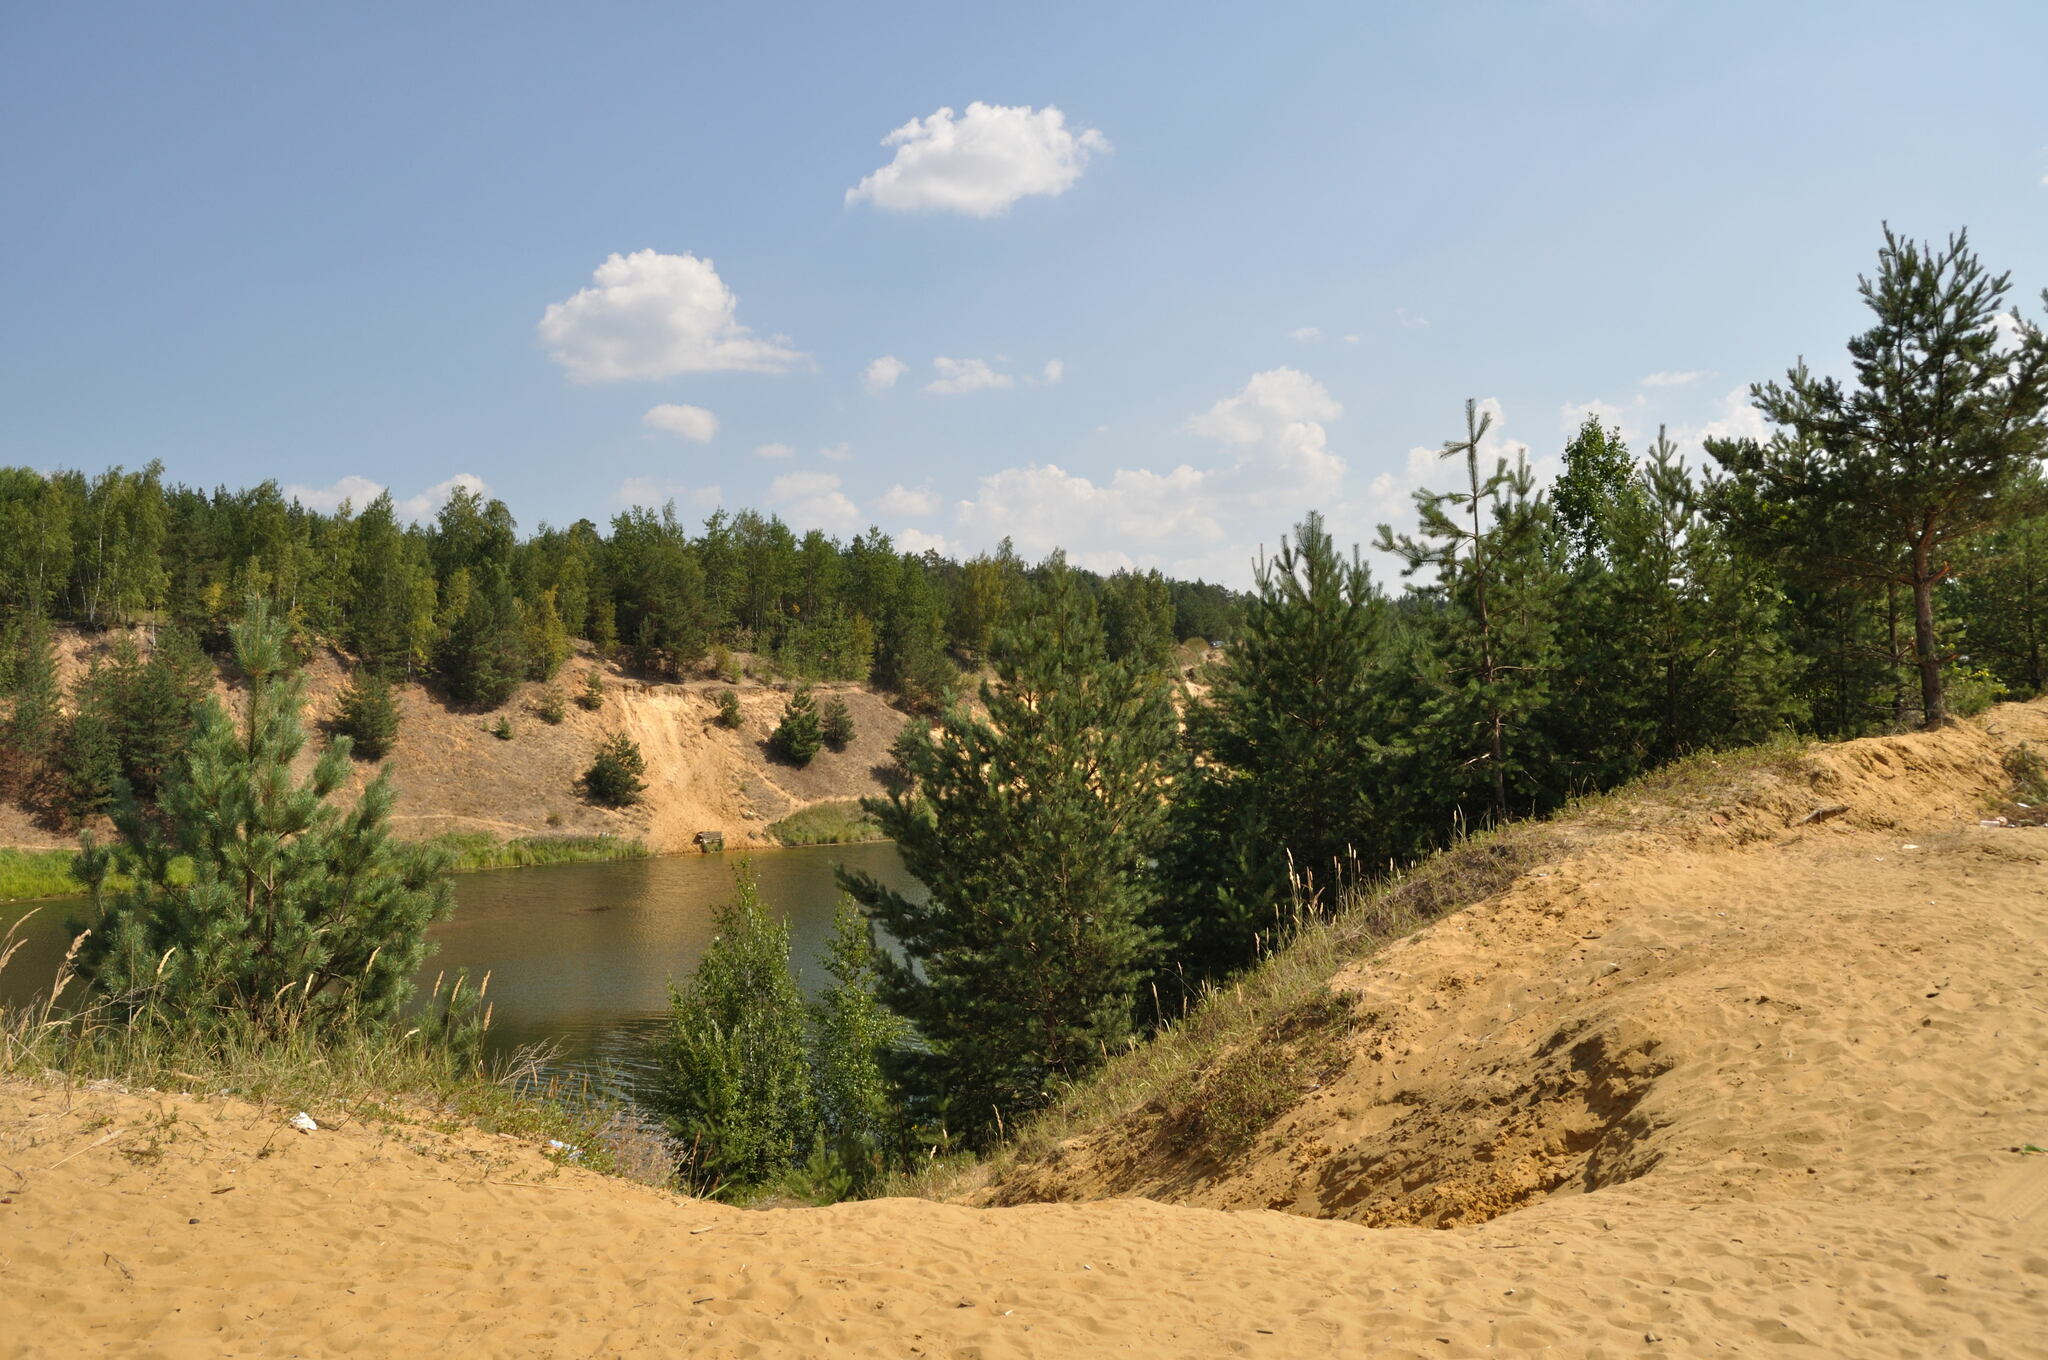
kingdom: Plantae
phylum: Tracheophyta
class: Pinopsida
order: Pinales
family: Pinaceae
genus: Pinus
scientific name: Pinus sylvestris
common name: Scots pine
